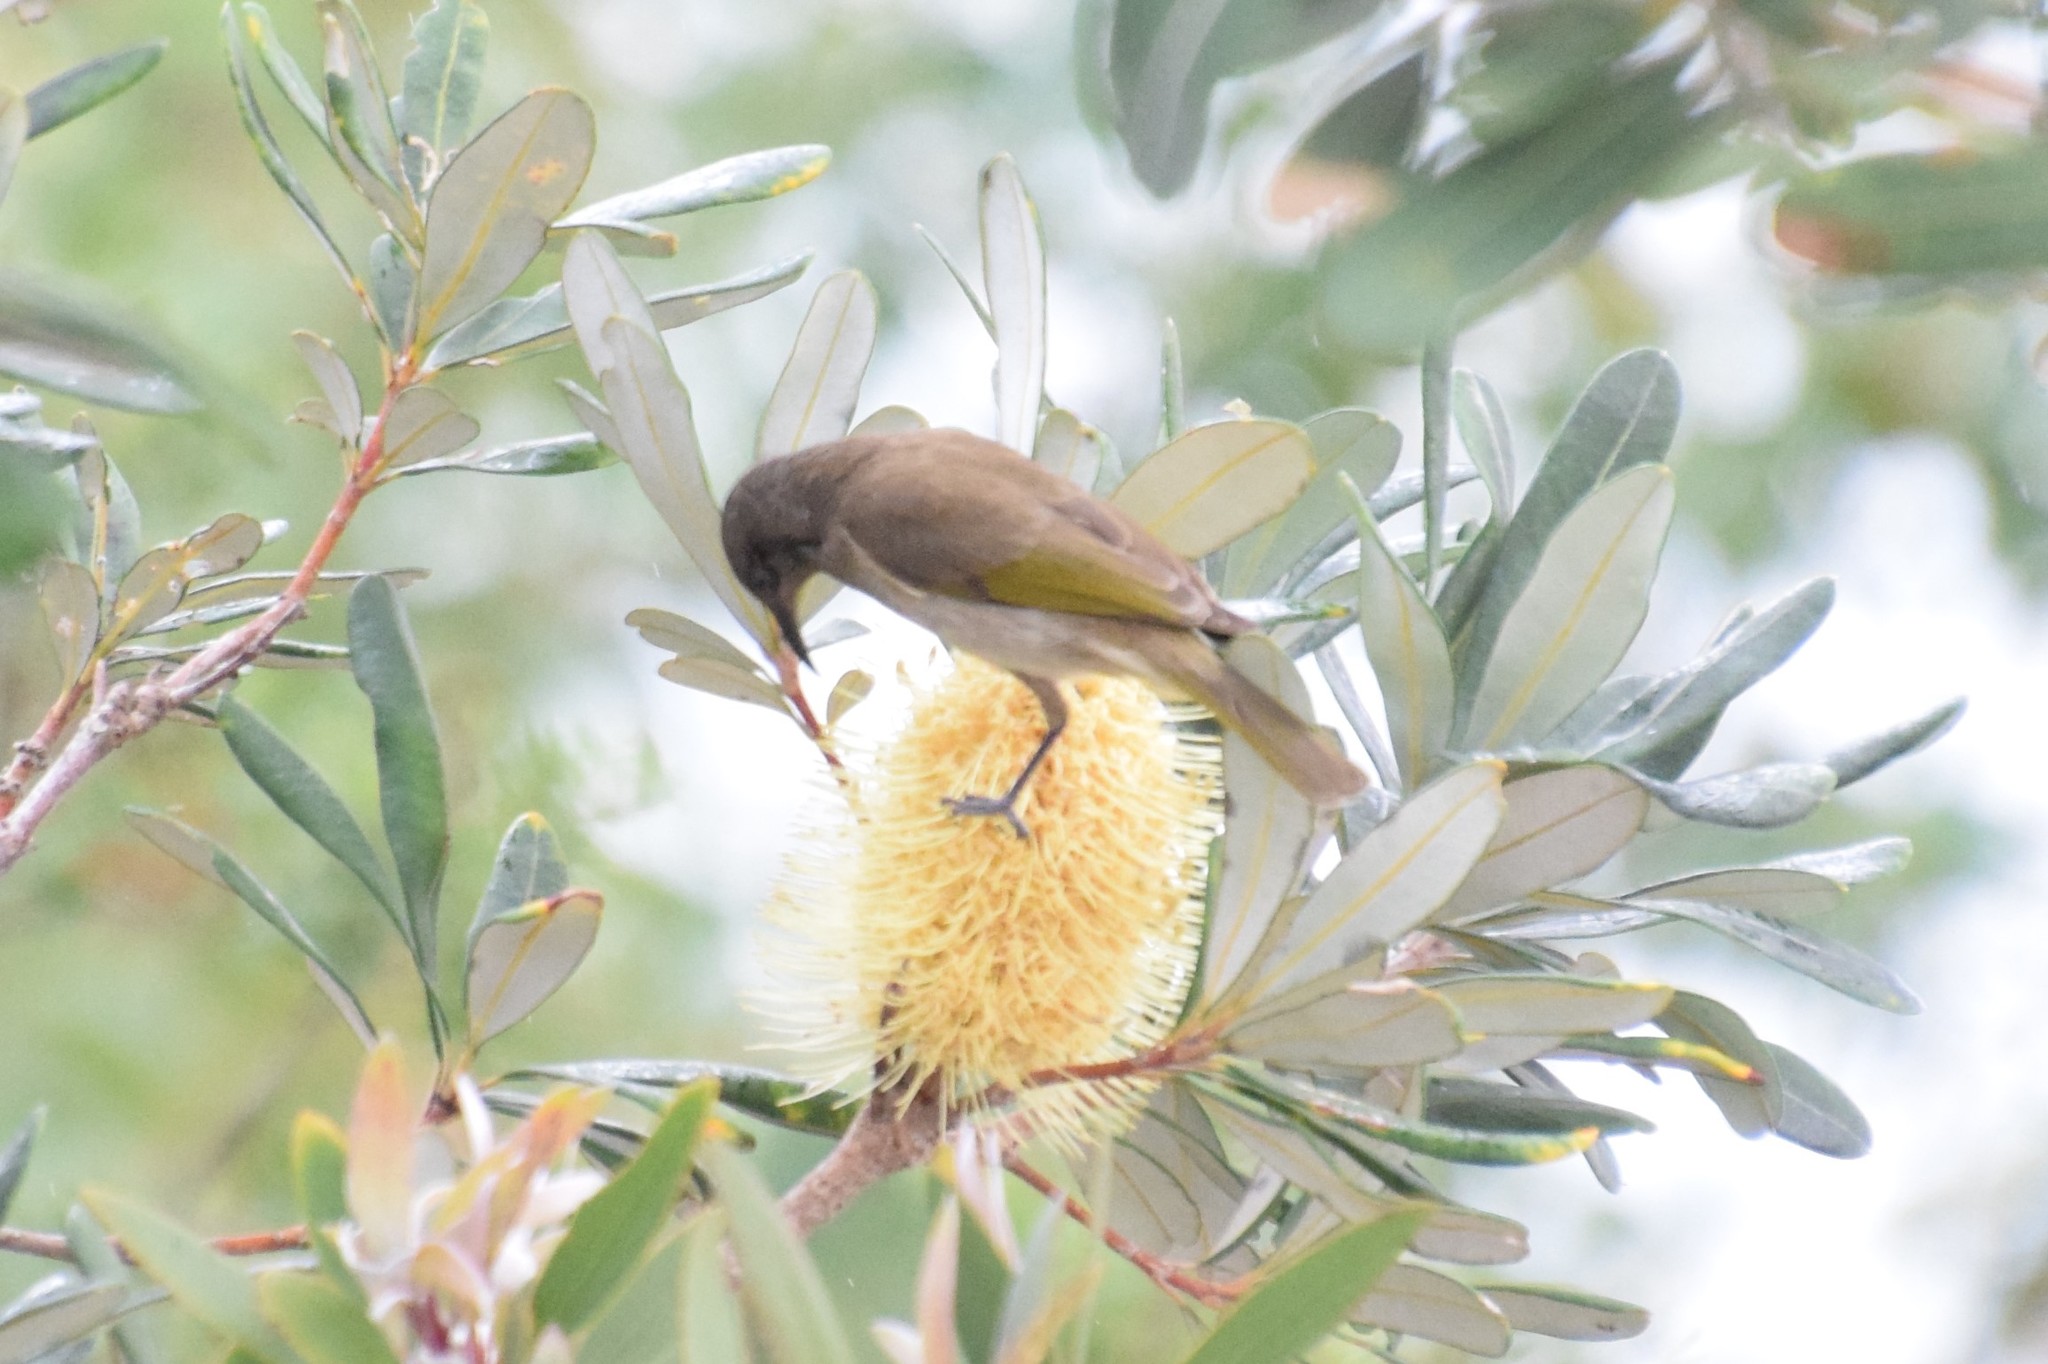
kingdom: Animalia
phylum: Chordata
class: Aves
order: Passeriformes
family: Meliphagidae
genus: Lichmera
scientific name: Lichmera indistincta
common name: Brown honeyeater
